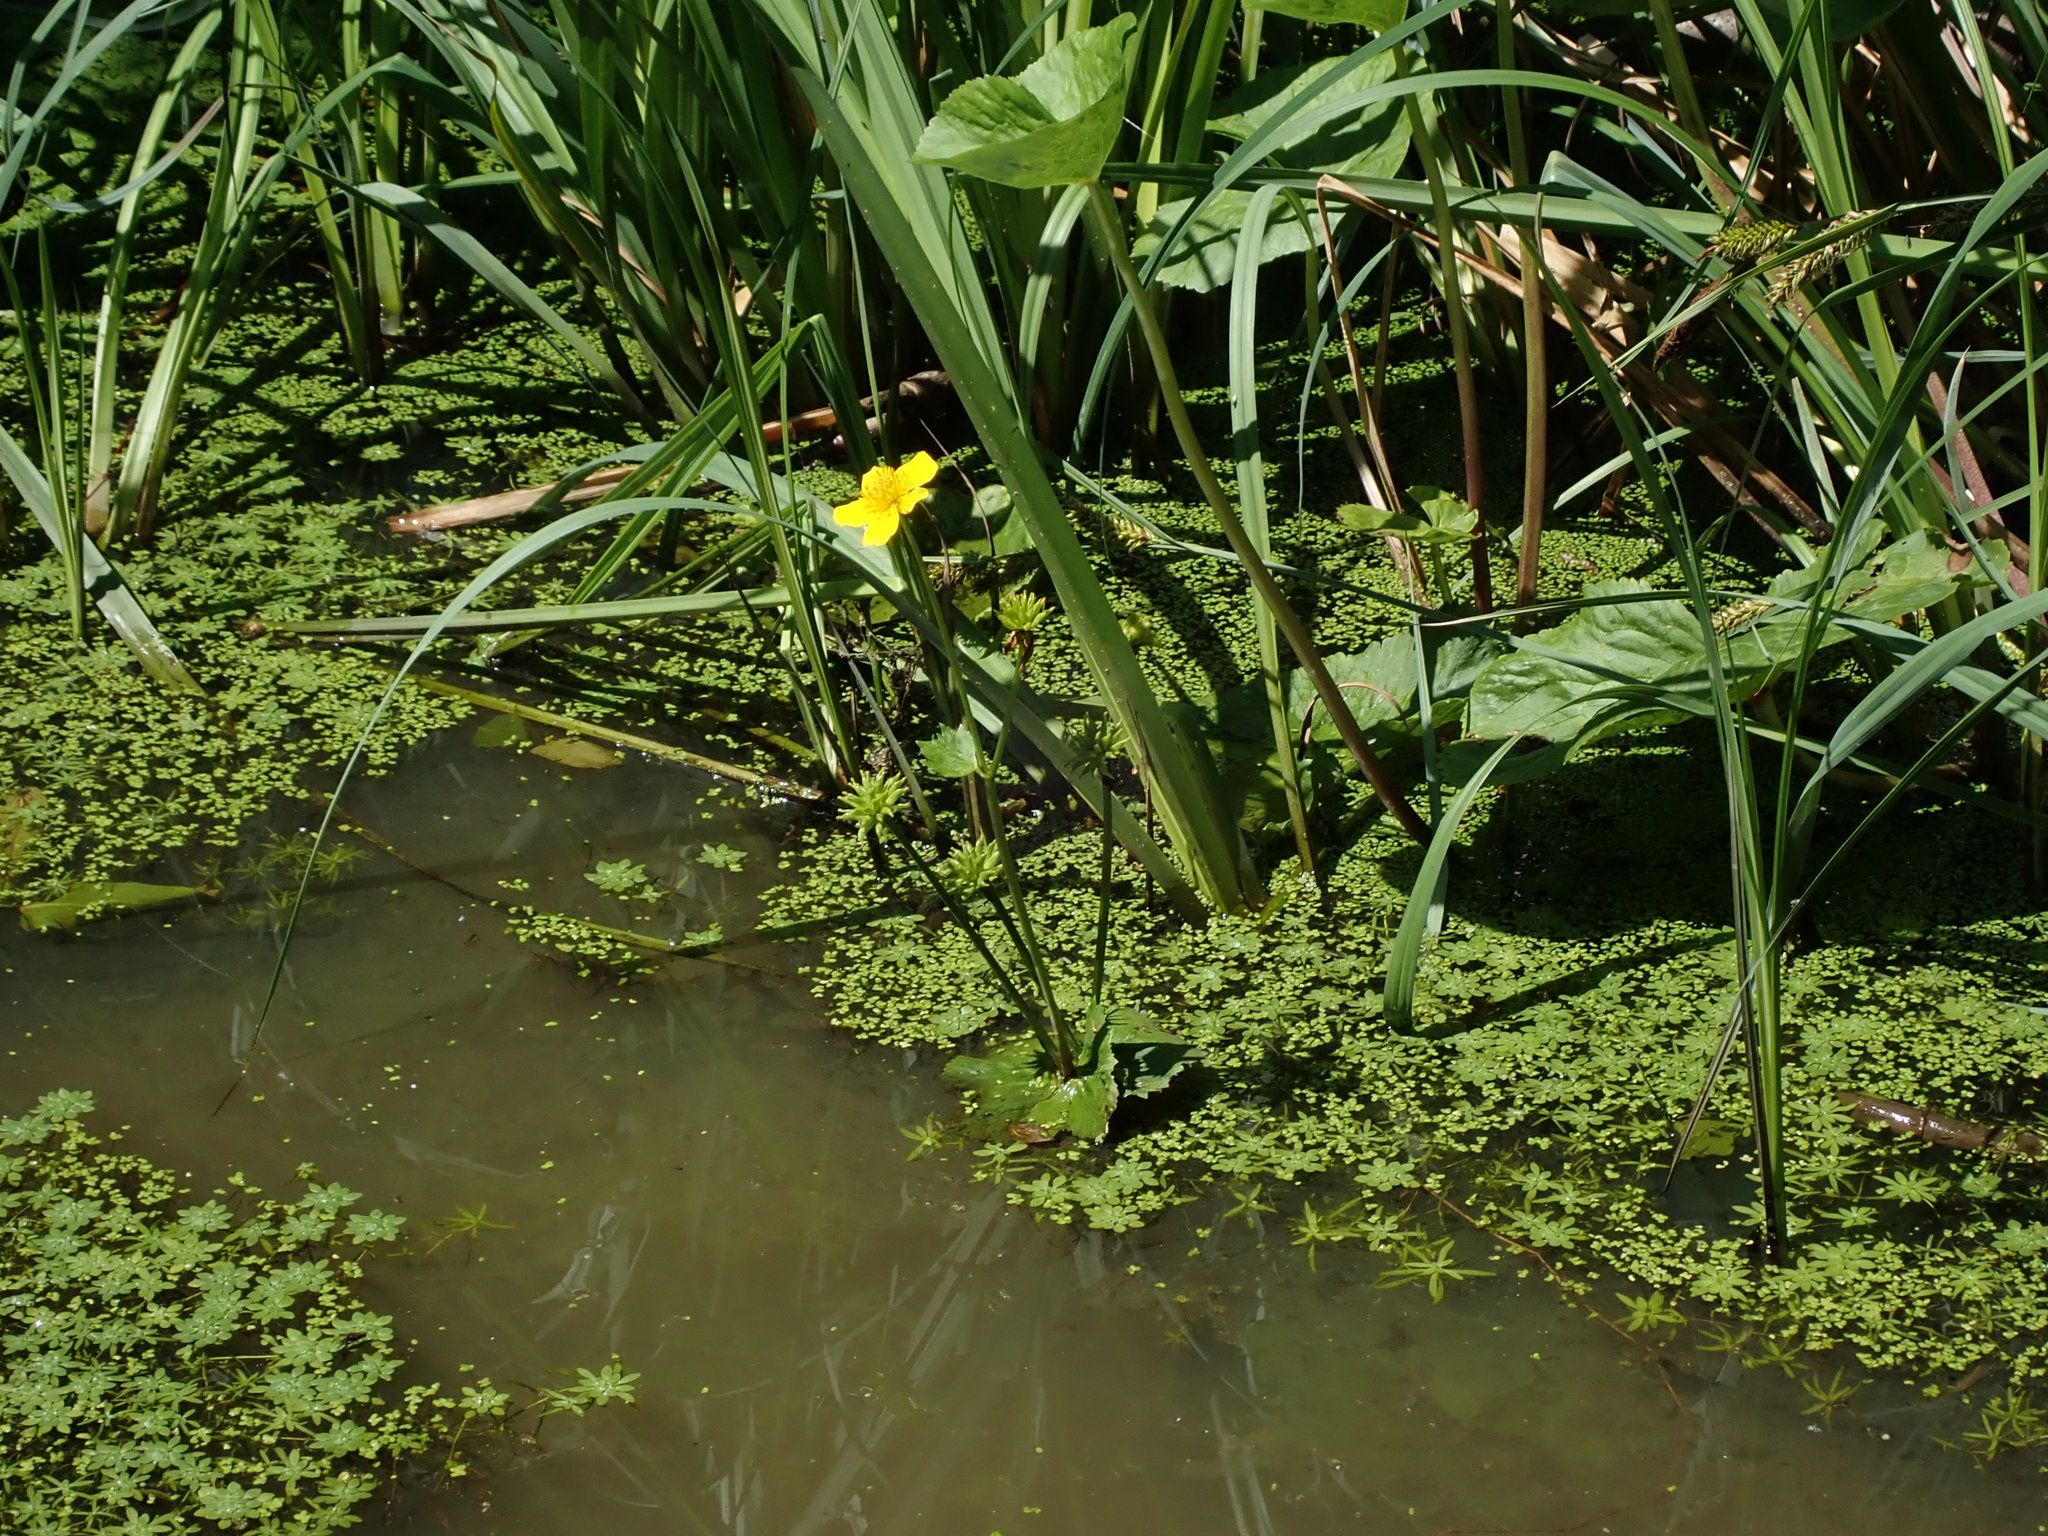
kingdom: Plantae
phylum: Tracheophyta
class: Magnoliopsida
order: Ranunculales
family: Ranunculaceae
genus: Caltha
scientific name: Caltha palustris
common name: Marsh marigold
